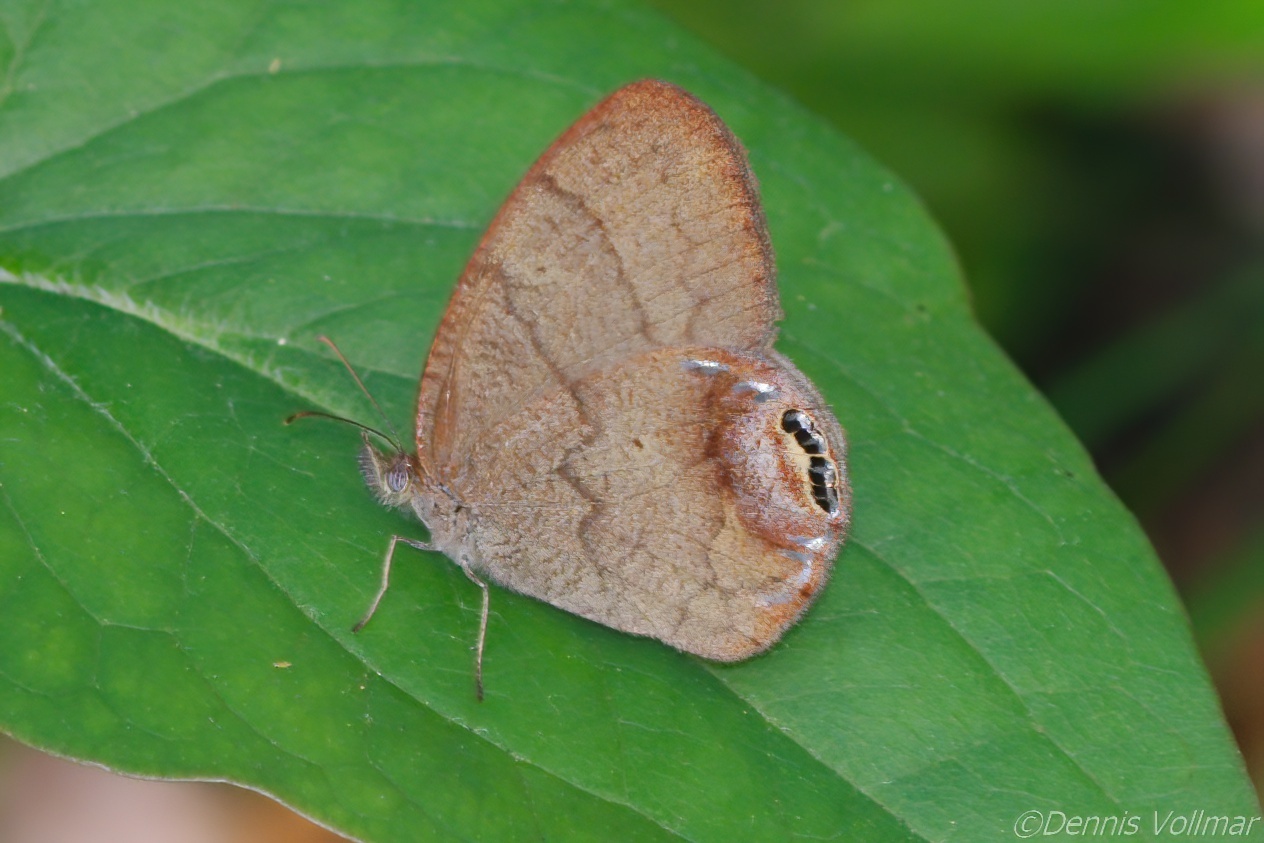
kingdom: Animalia
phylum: Arthropoda
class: Insecta
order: Lepidoptera
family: Nymphalidae
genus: Euptychia
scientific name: Euptychia cornelius
